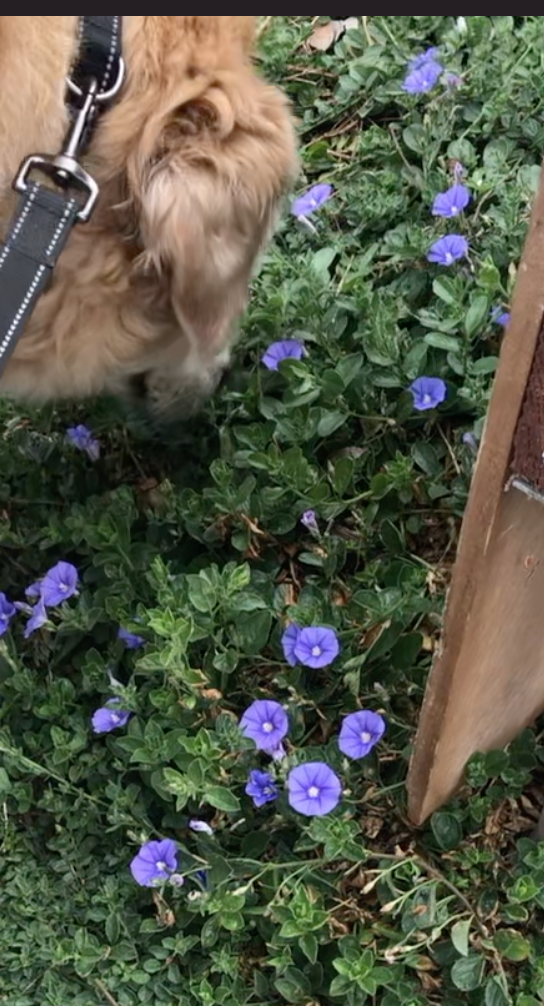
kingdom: Plantae
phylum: Tracheophyta
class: Magnoliopsida
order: Solanales
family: Convolvulaceae
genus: Convolvulus
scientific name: Convolvulus sabatius
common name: Ground blue-convolvulus
